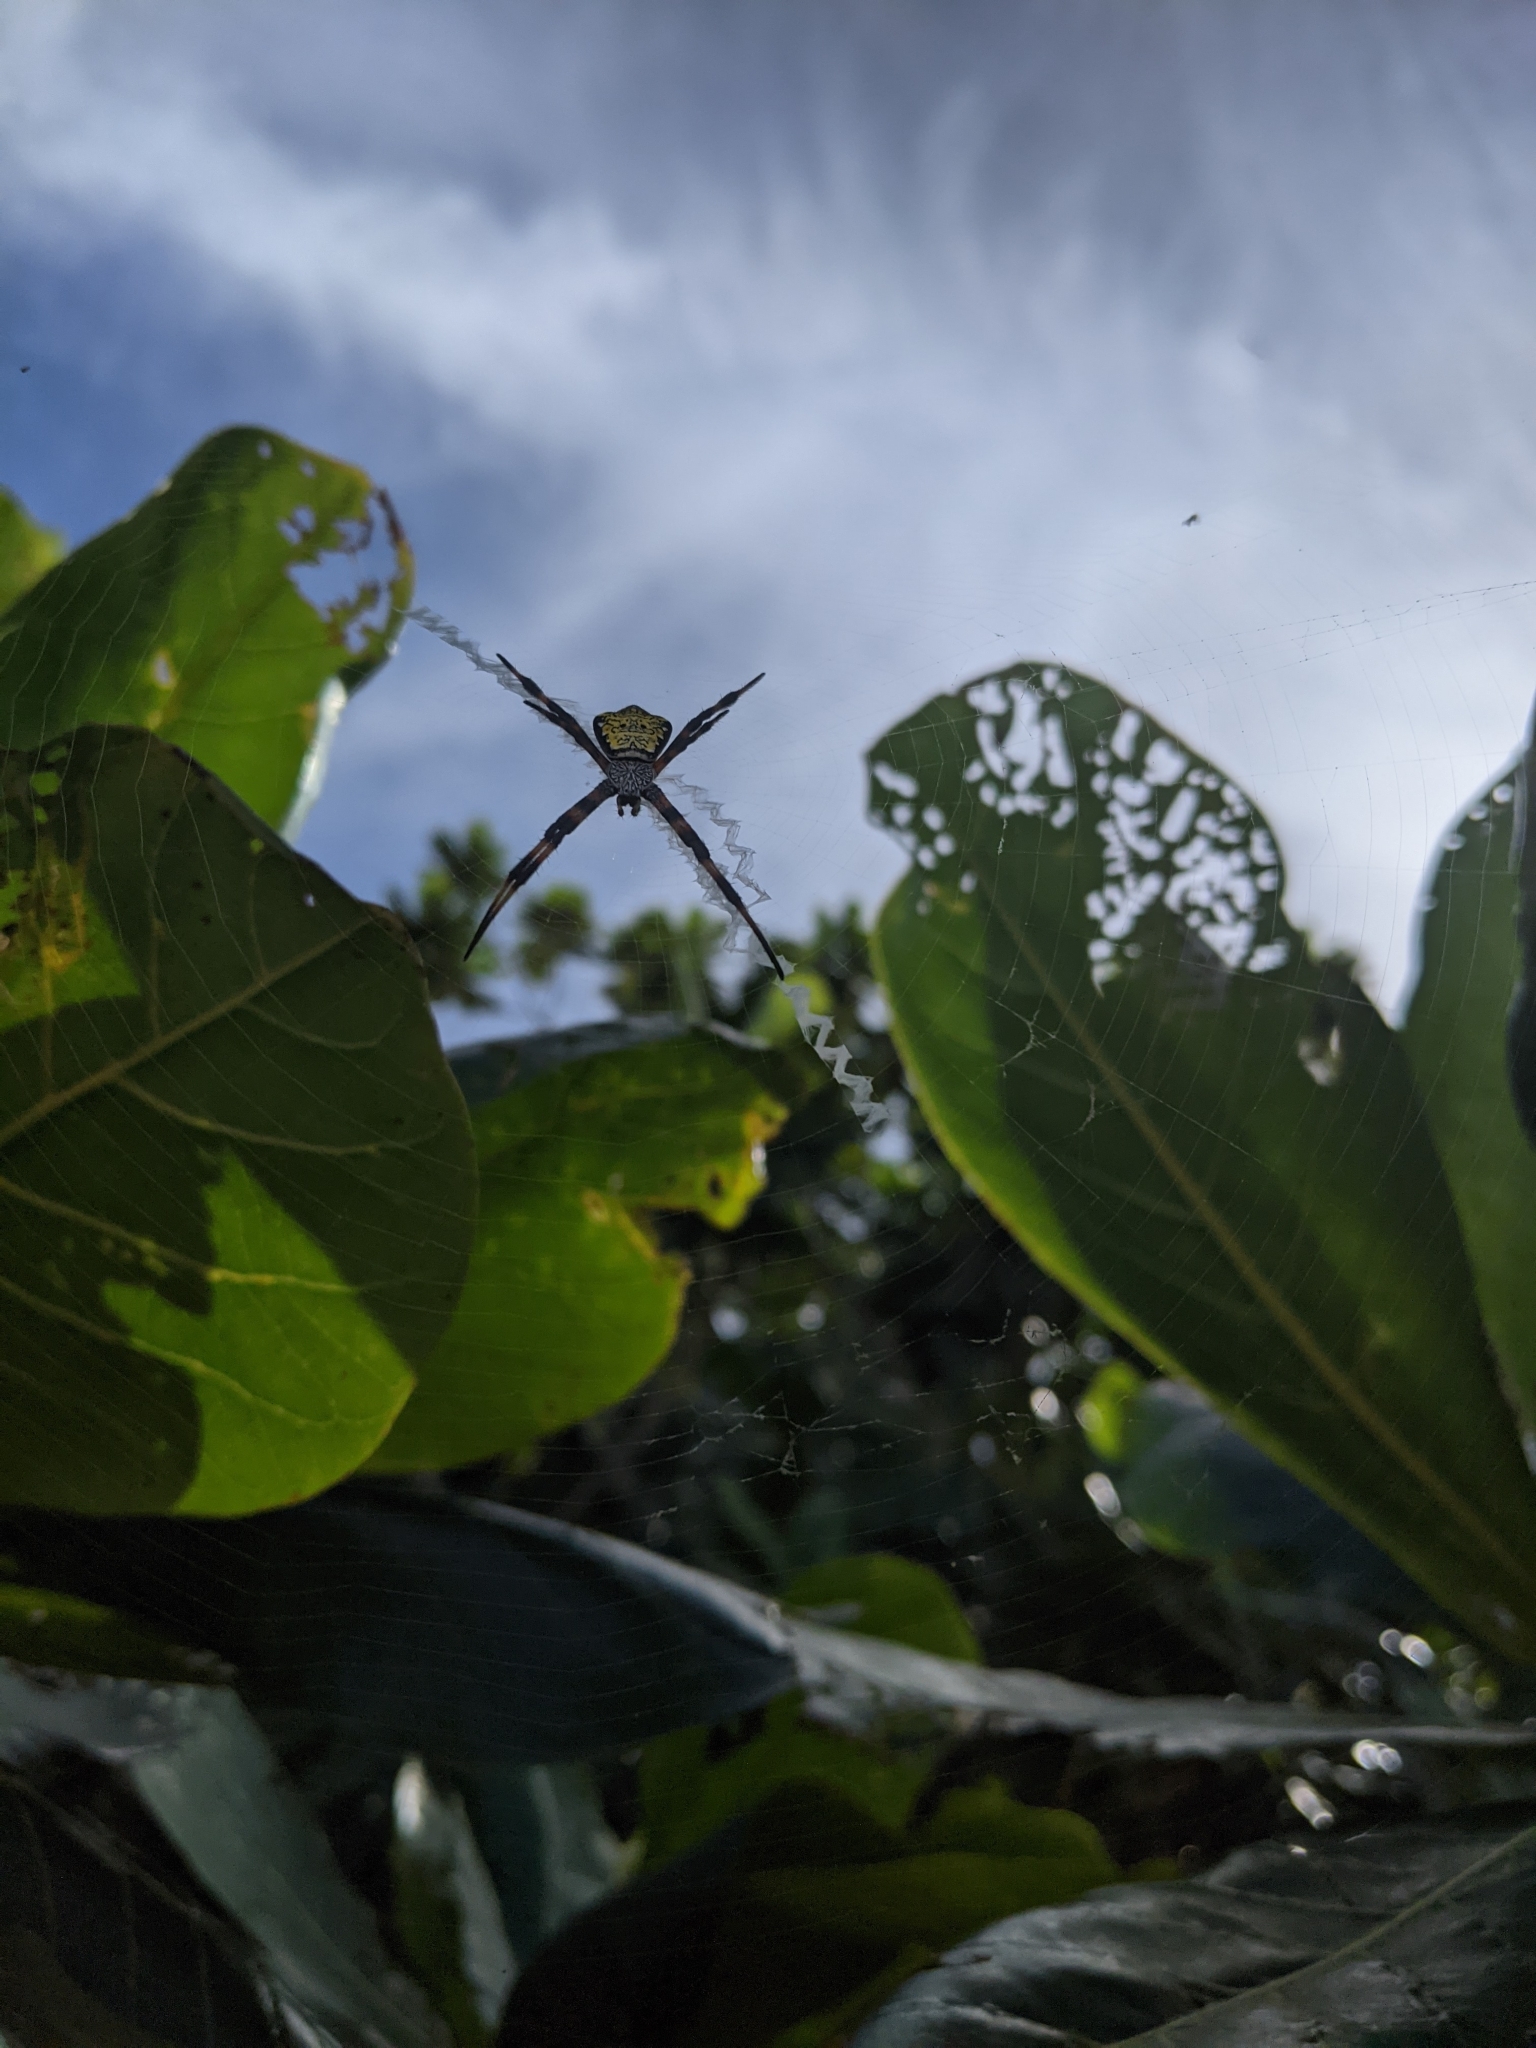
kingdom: Animalia
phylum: Arthropoda
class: Arachnida
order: Araneae
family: Araneidae
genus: Argiope
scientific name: Argiope appensa
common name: Garden spider
